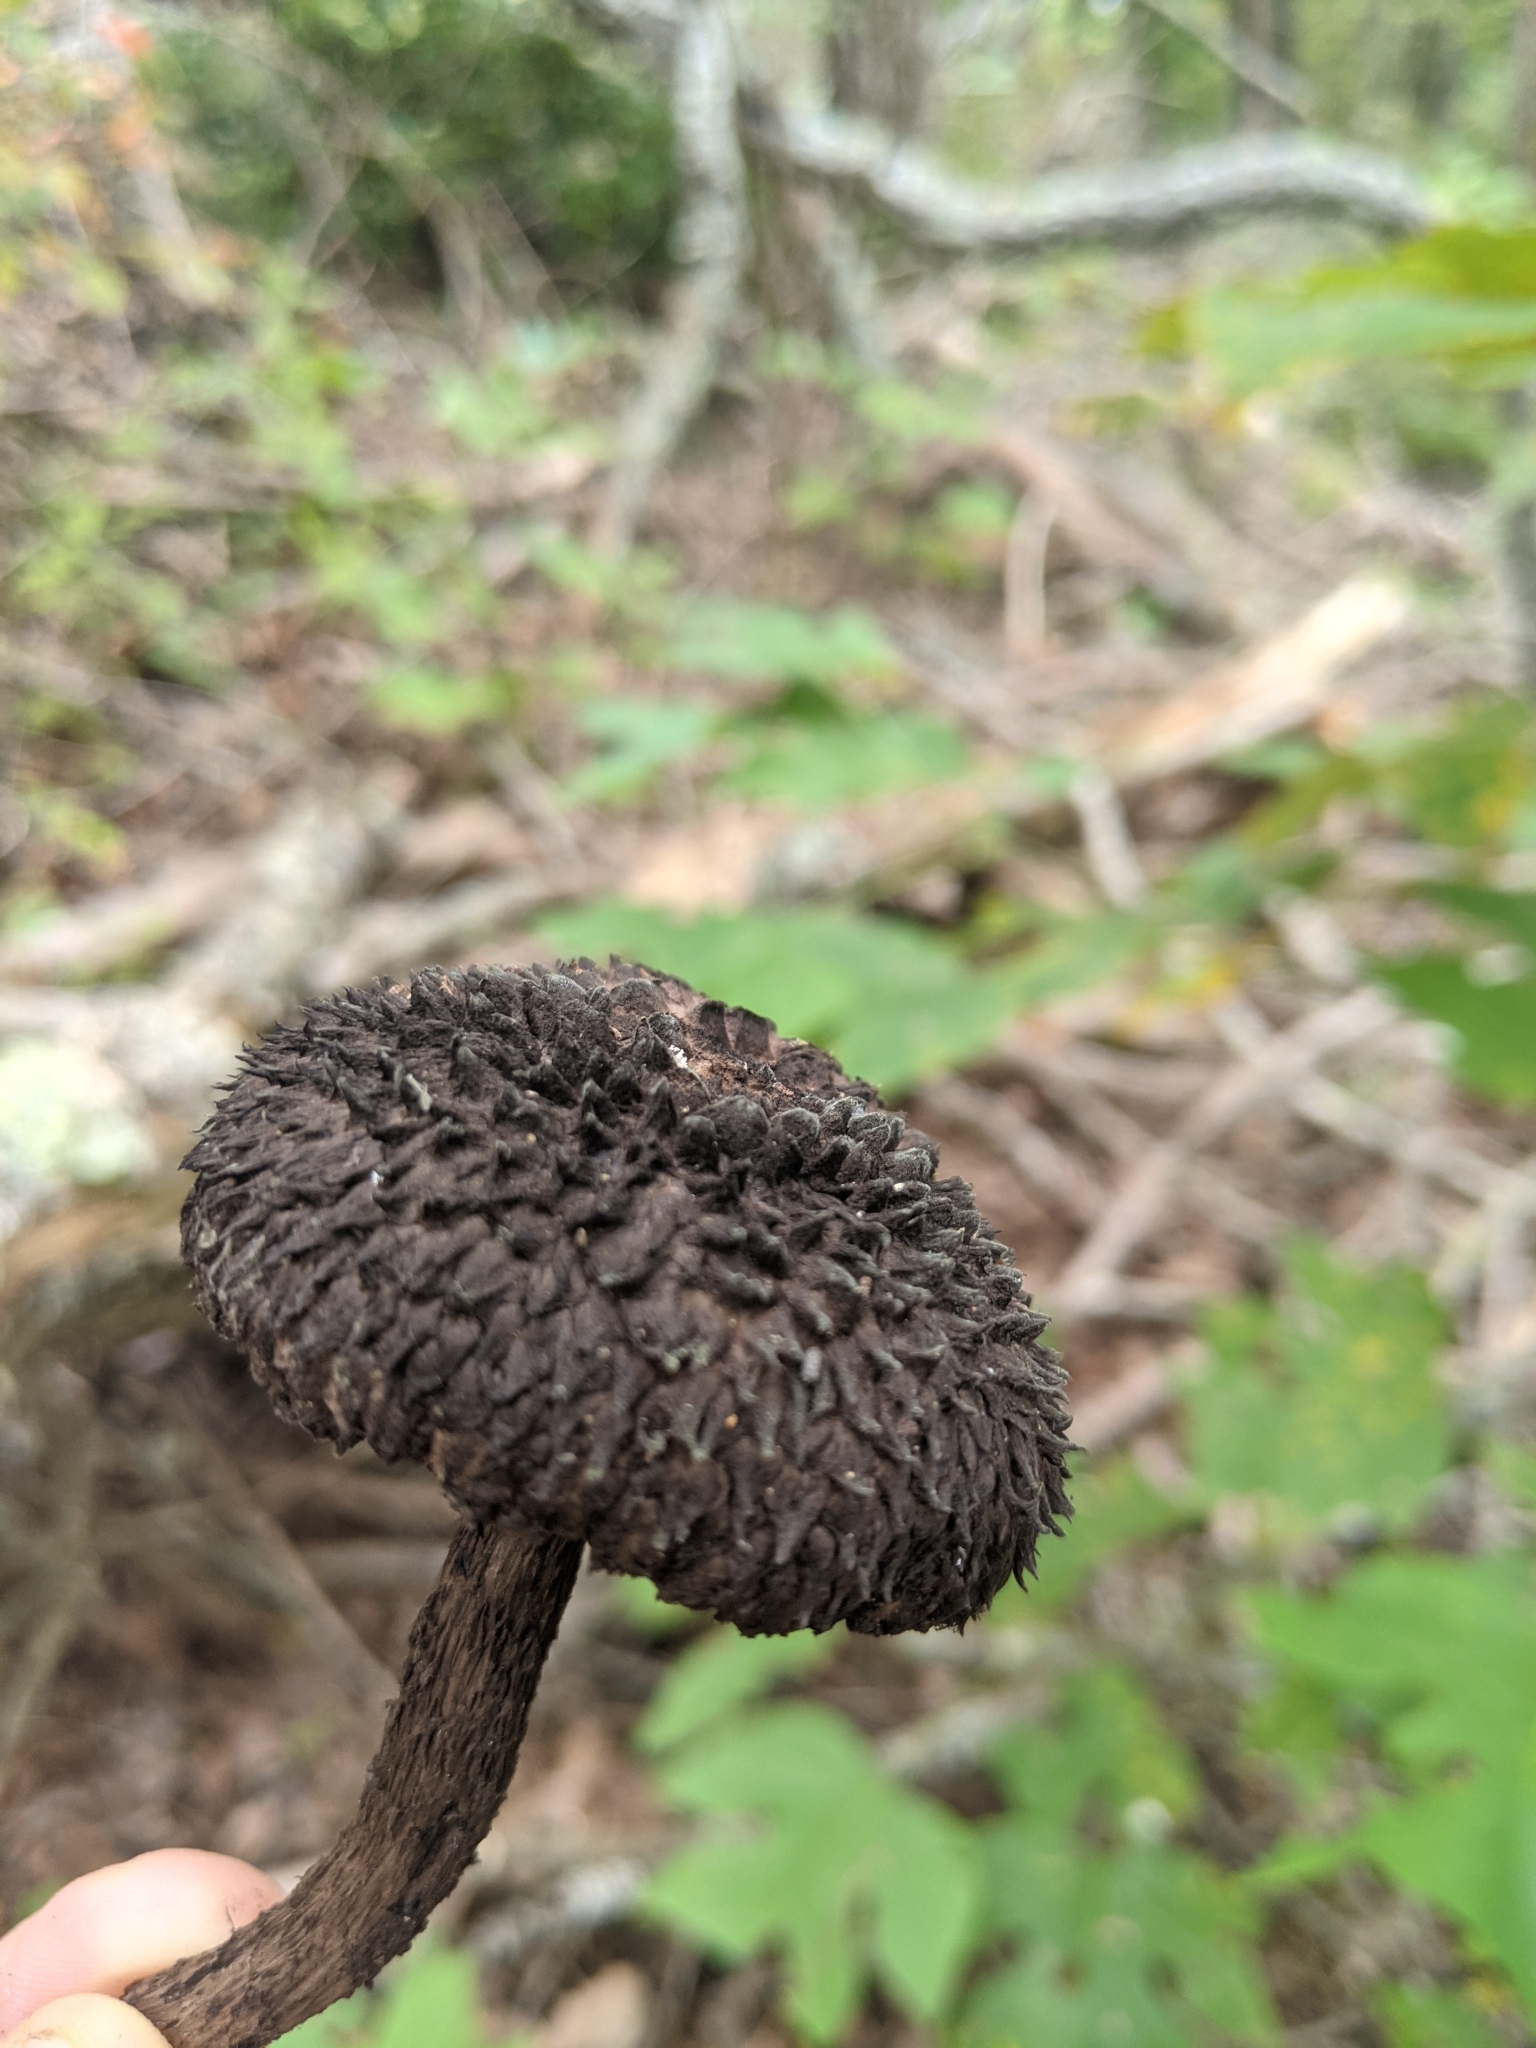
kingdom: Fungi
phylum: Basidiomycota
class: Agaricomycetes
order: Boletales
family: Boletaceae
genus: Strobilomyces
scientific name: Strobilomyces strobilaceus
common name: Old man of the woods
